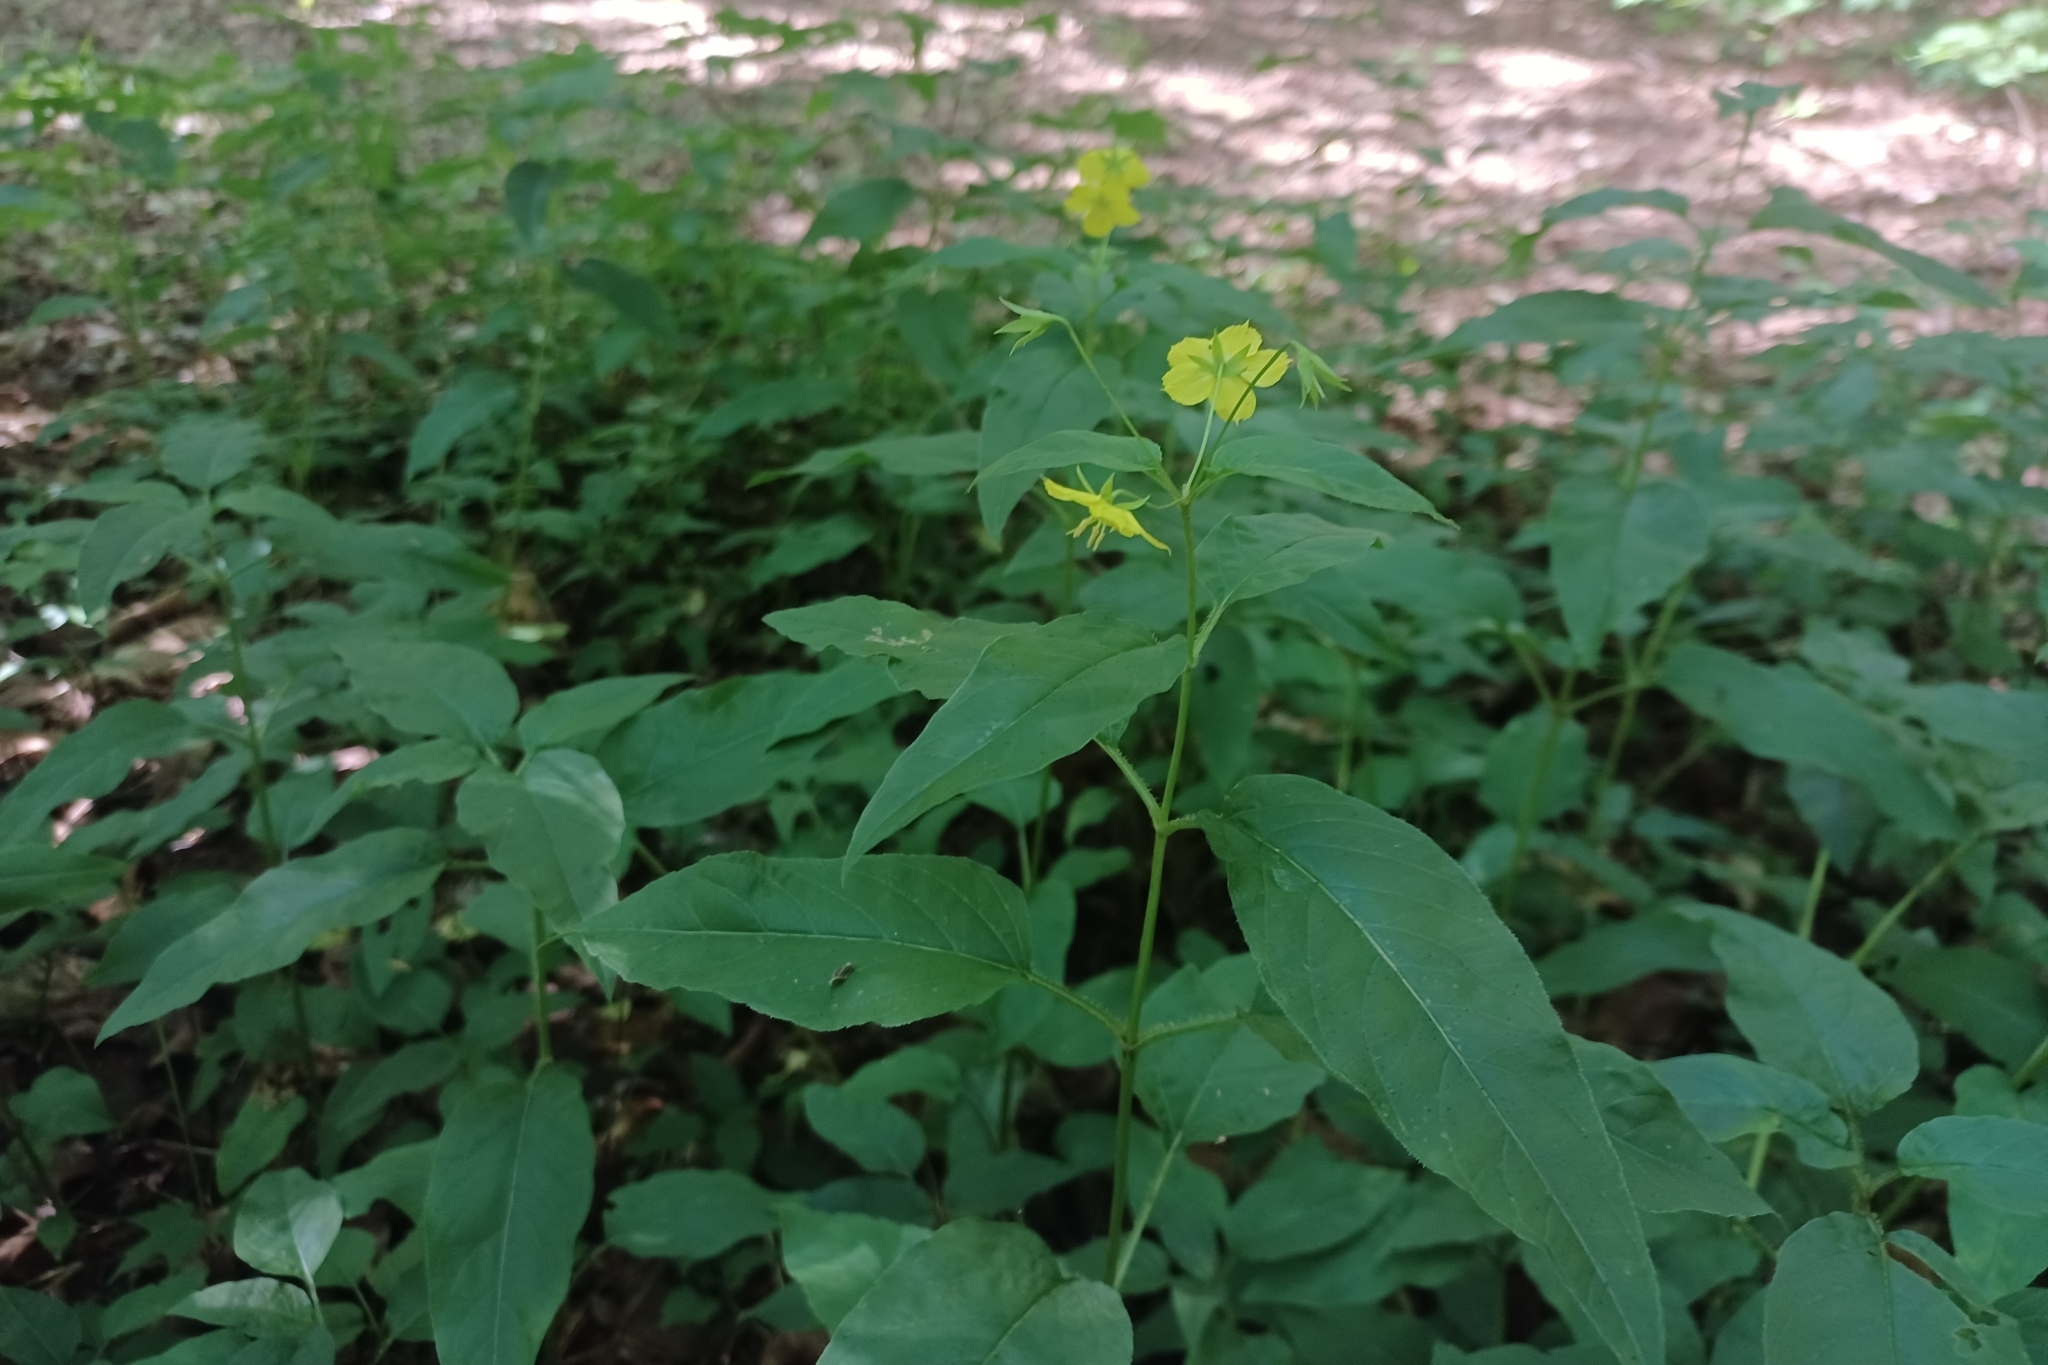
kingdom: Plantae
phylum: Tracheophyta
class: Magnoliopsida
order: Ericales
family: Primulaceae
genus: Lysimachia
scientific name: Lysimachia ciliata
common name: Fringed loosestrife
